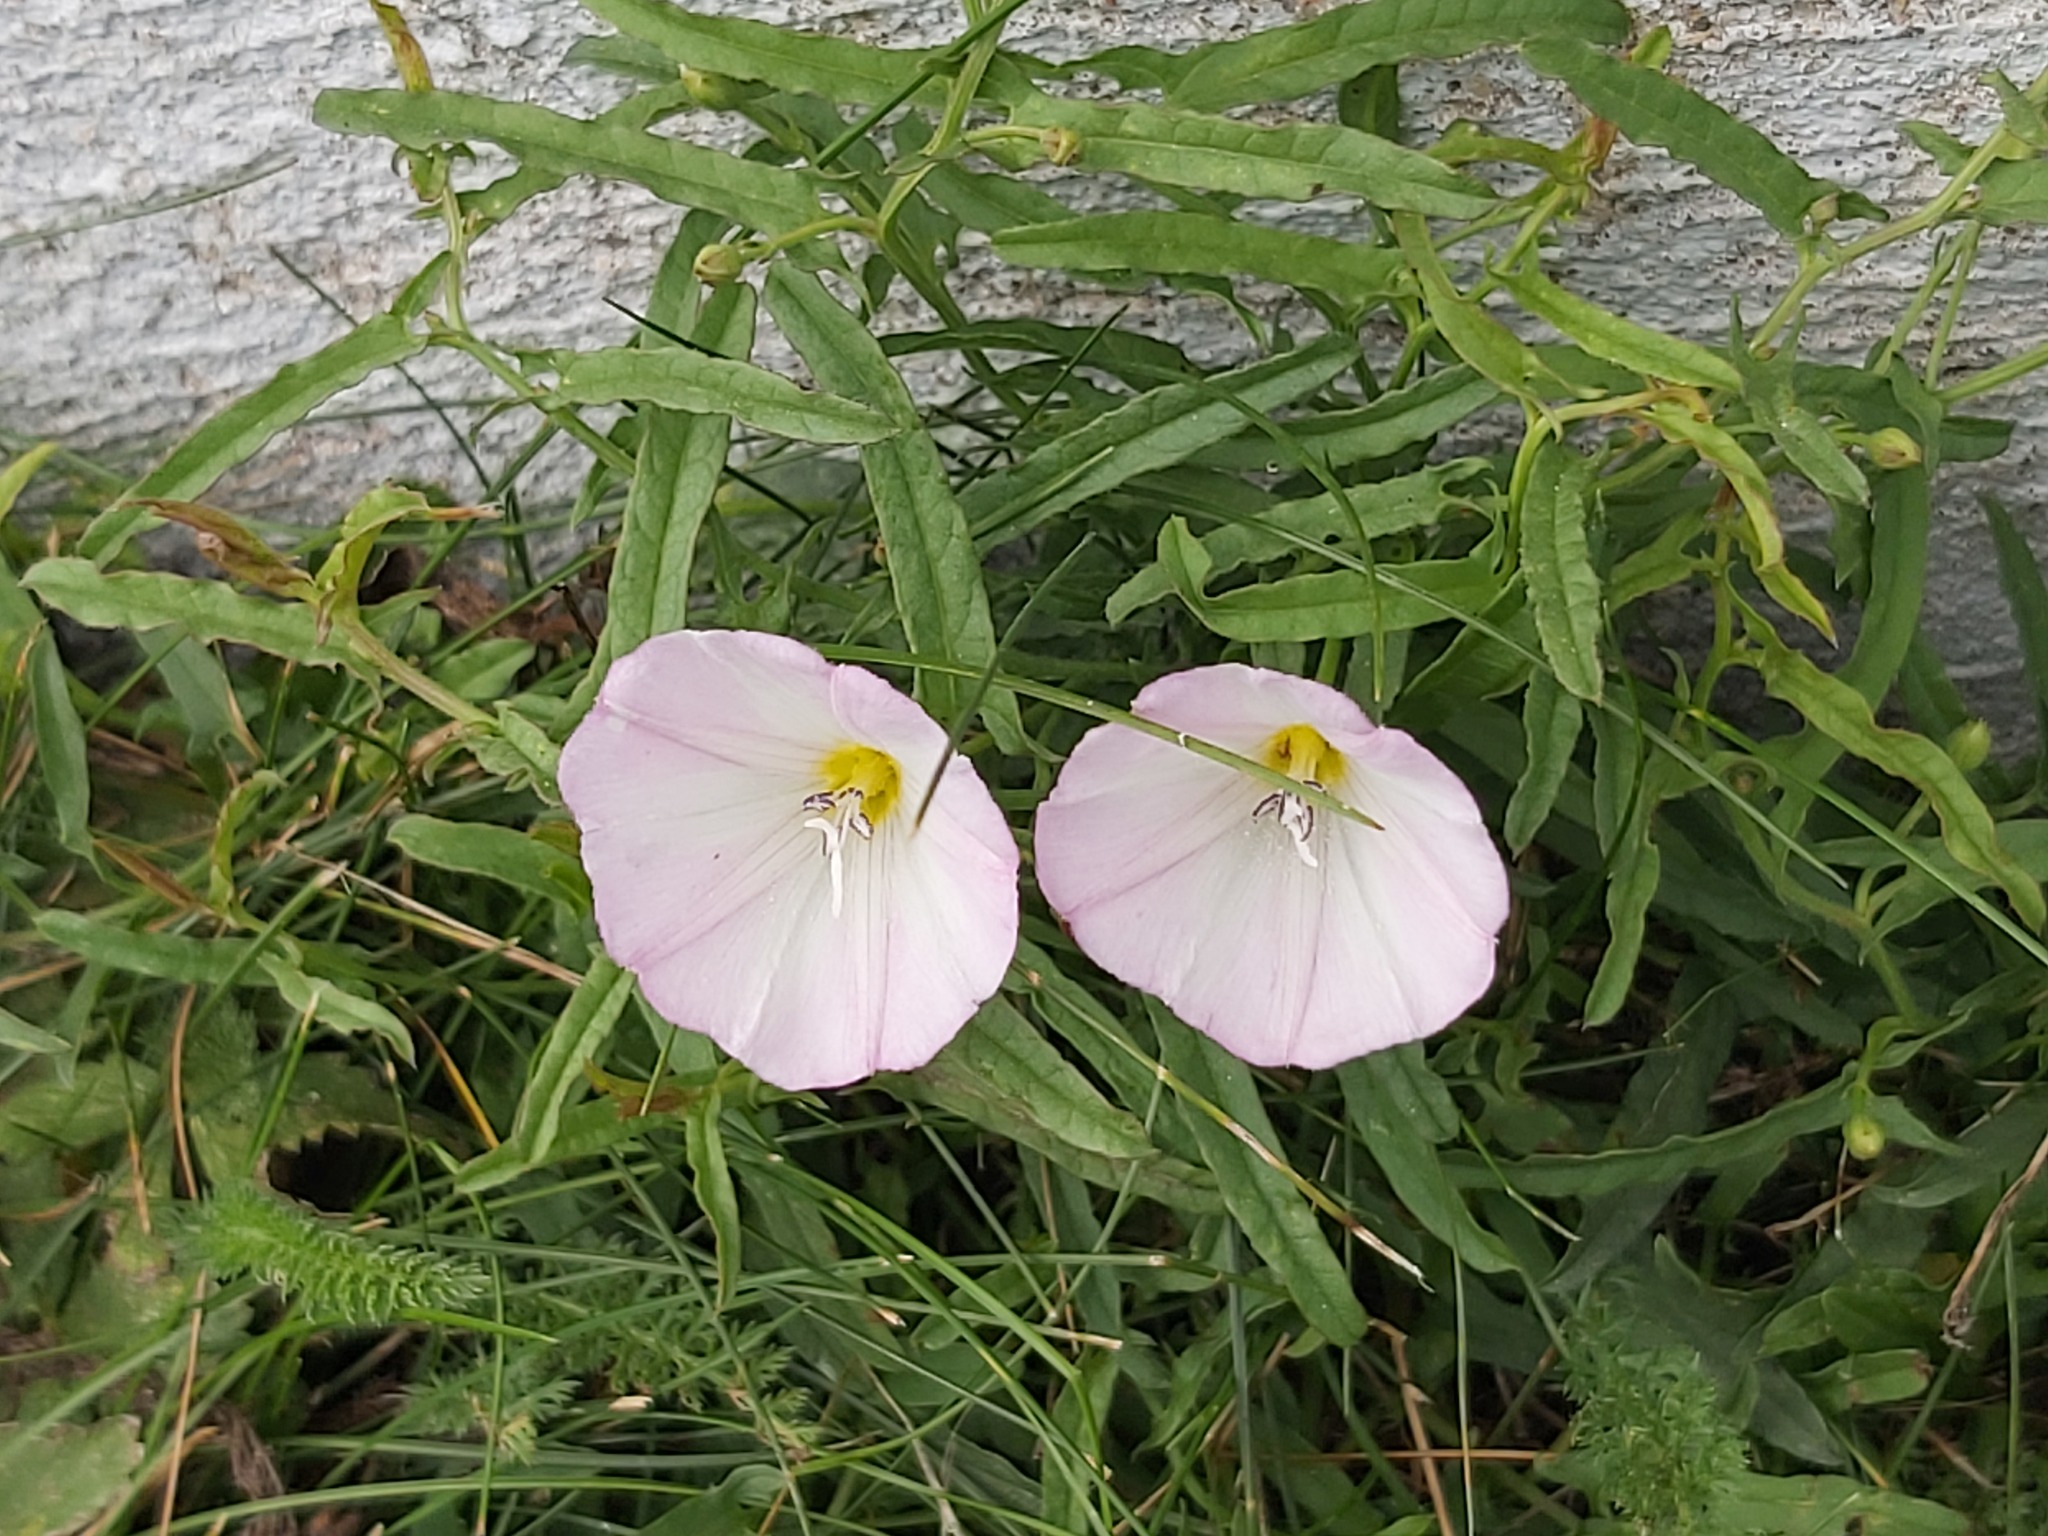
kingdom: Plantae
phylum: Tracheophyta
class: Magnoliopsida
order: Solanales
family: Convolvulaceae
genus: Convolvulus
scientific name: Convolvulus arvensis
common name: Field bindweed
